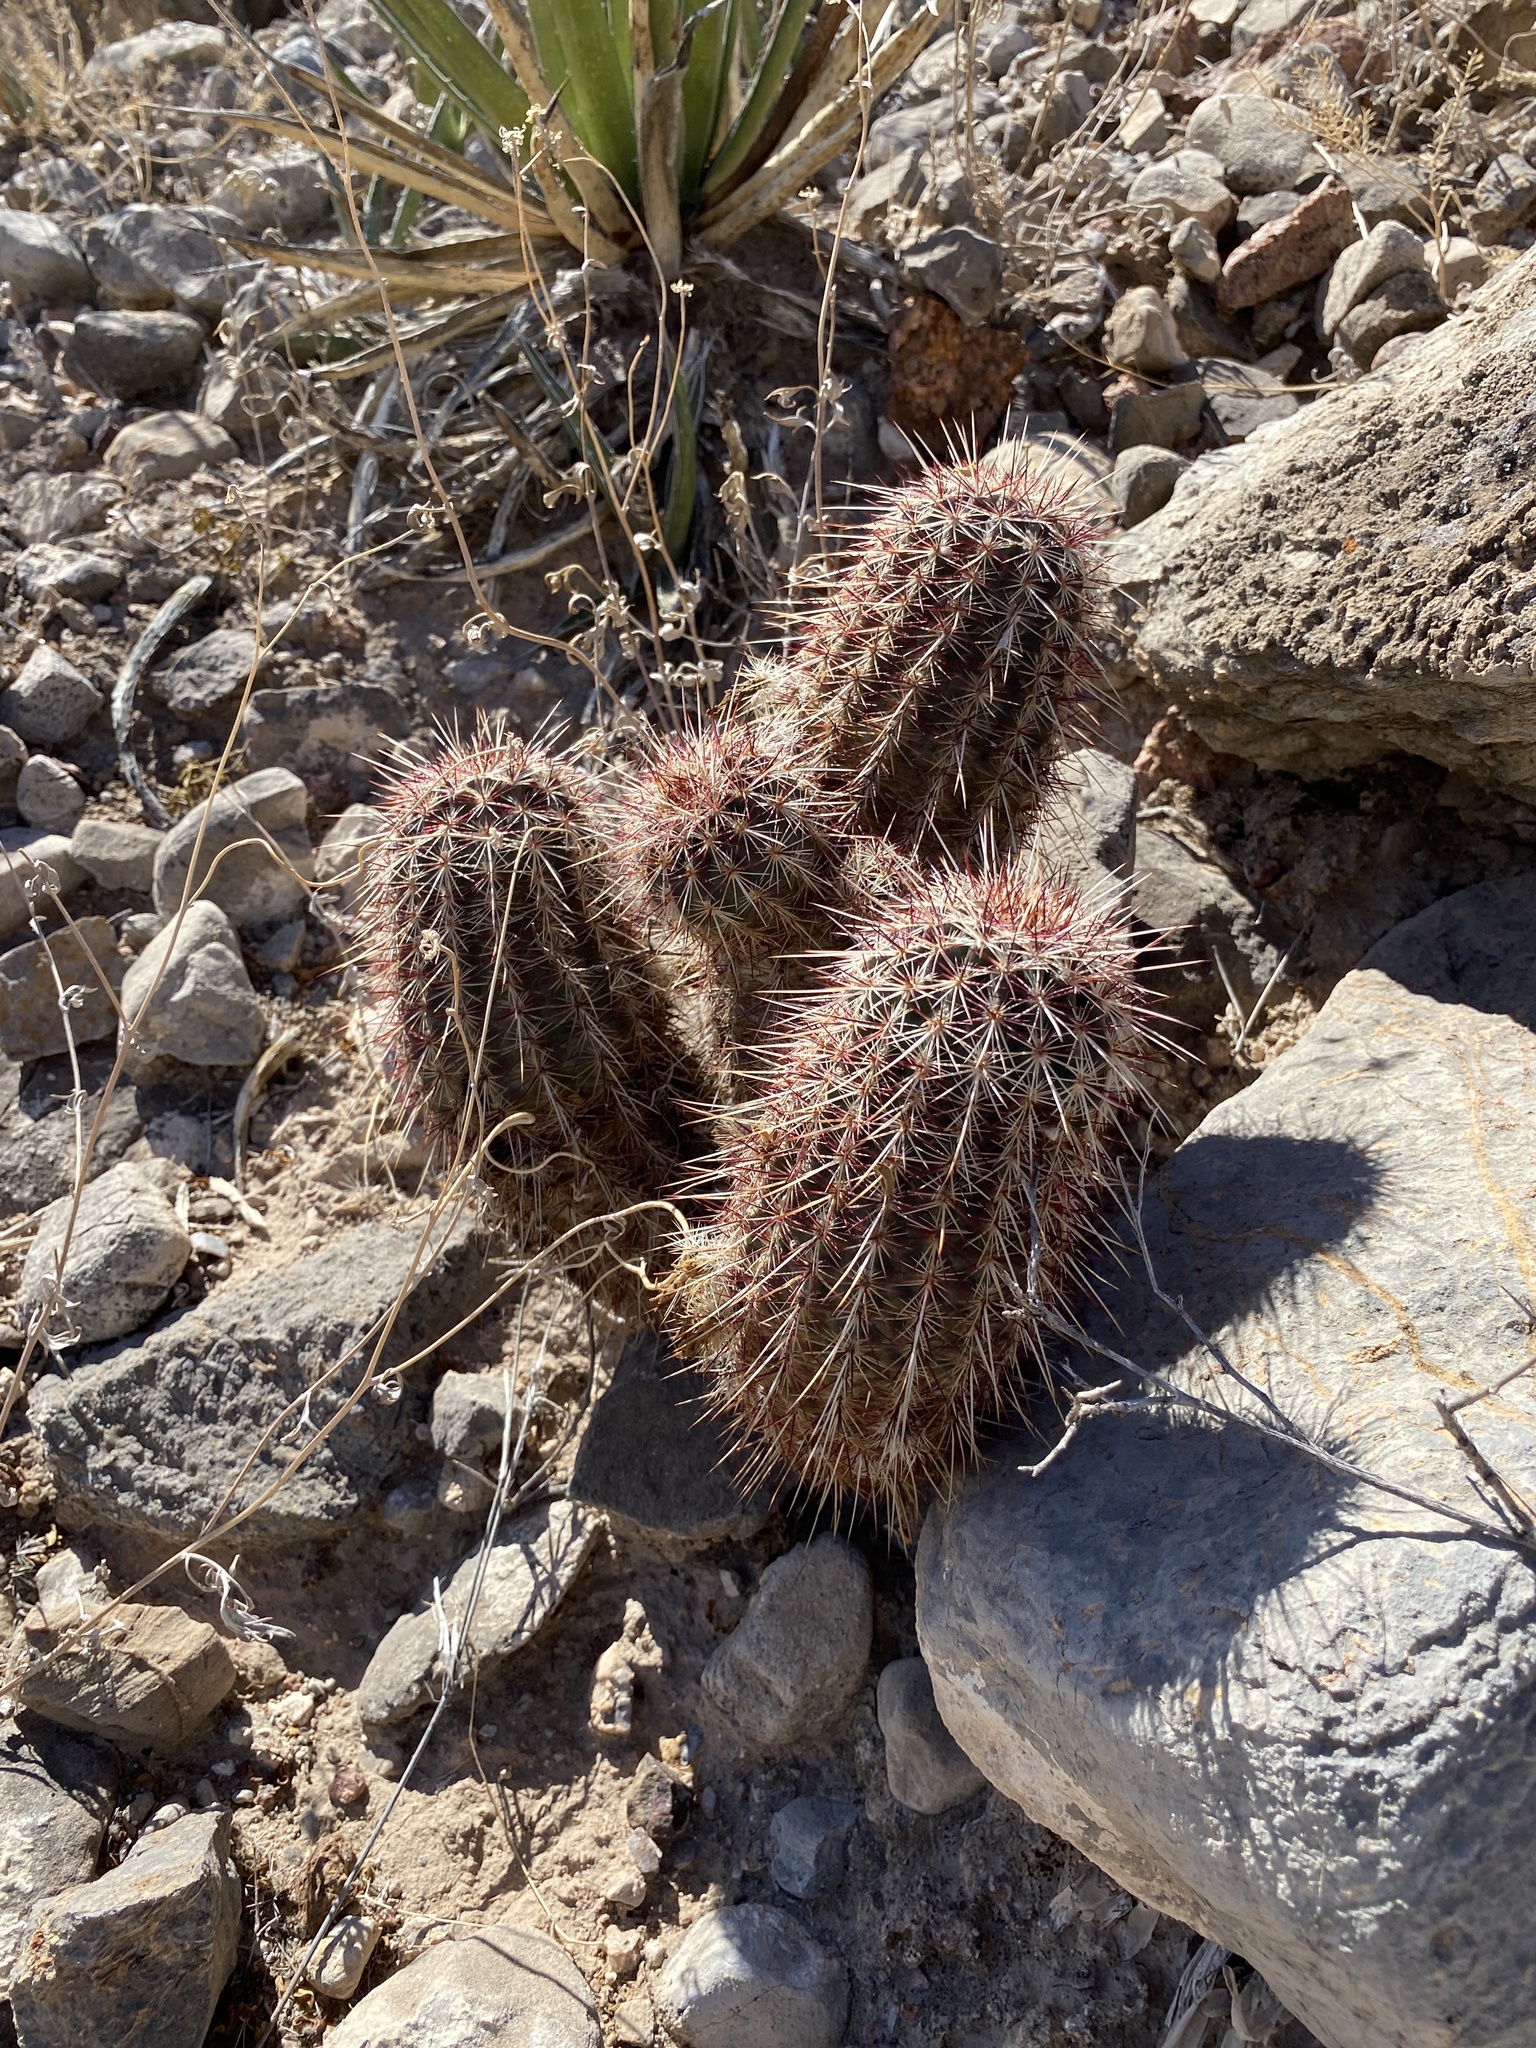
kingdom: Plantae
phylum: Tracheophyta
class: Magnoliopsida
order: Caryophyllales
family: Cactaceae
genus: Echinocereus
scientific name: Echinocereus viridiflorus
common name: Nylon hedgehog cactus
